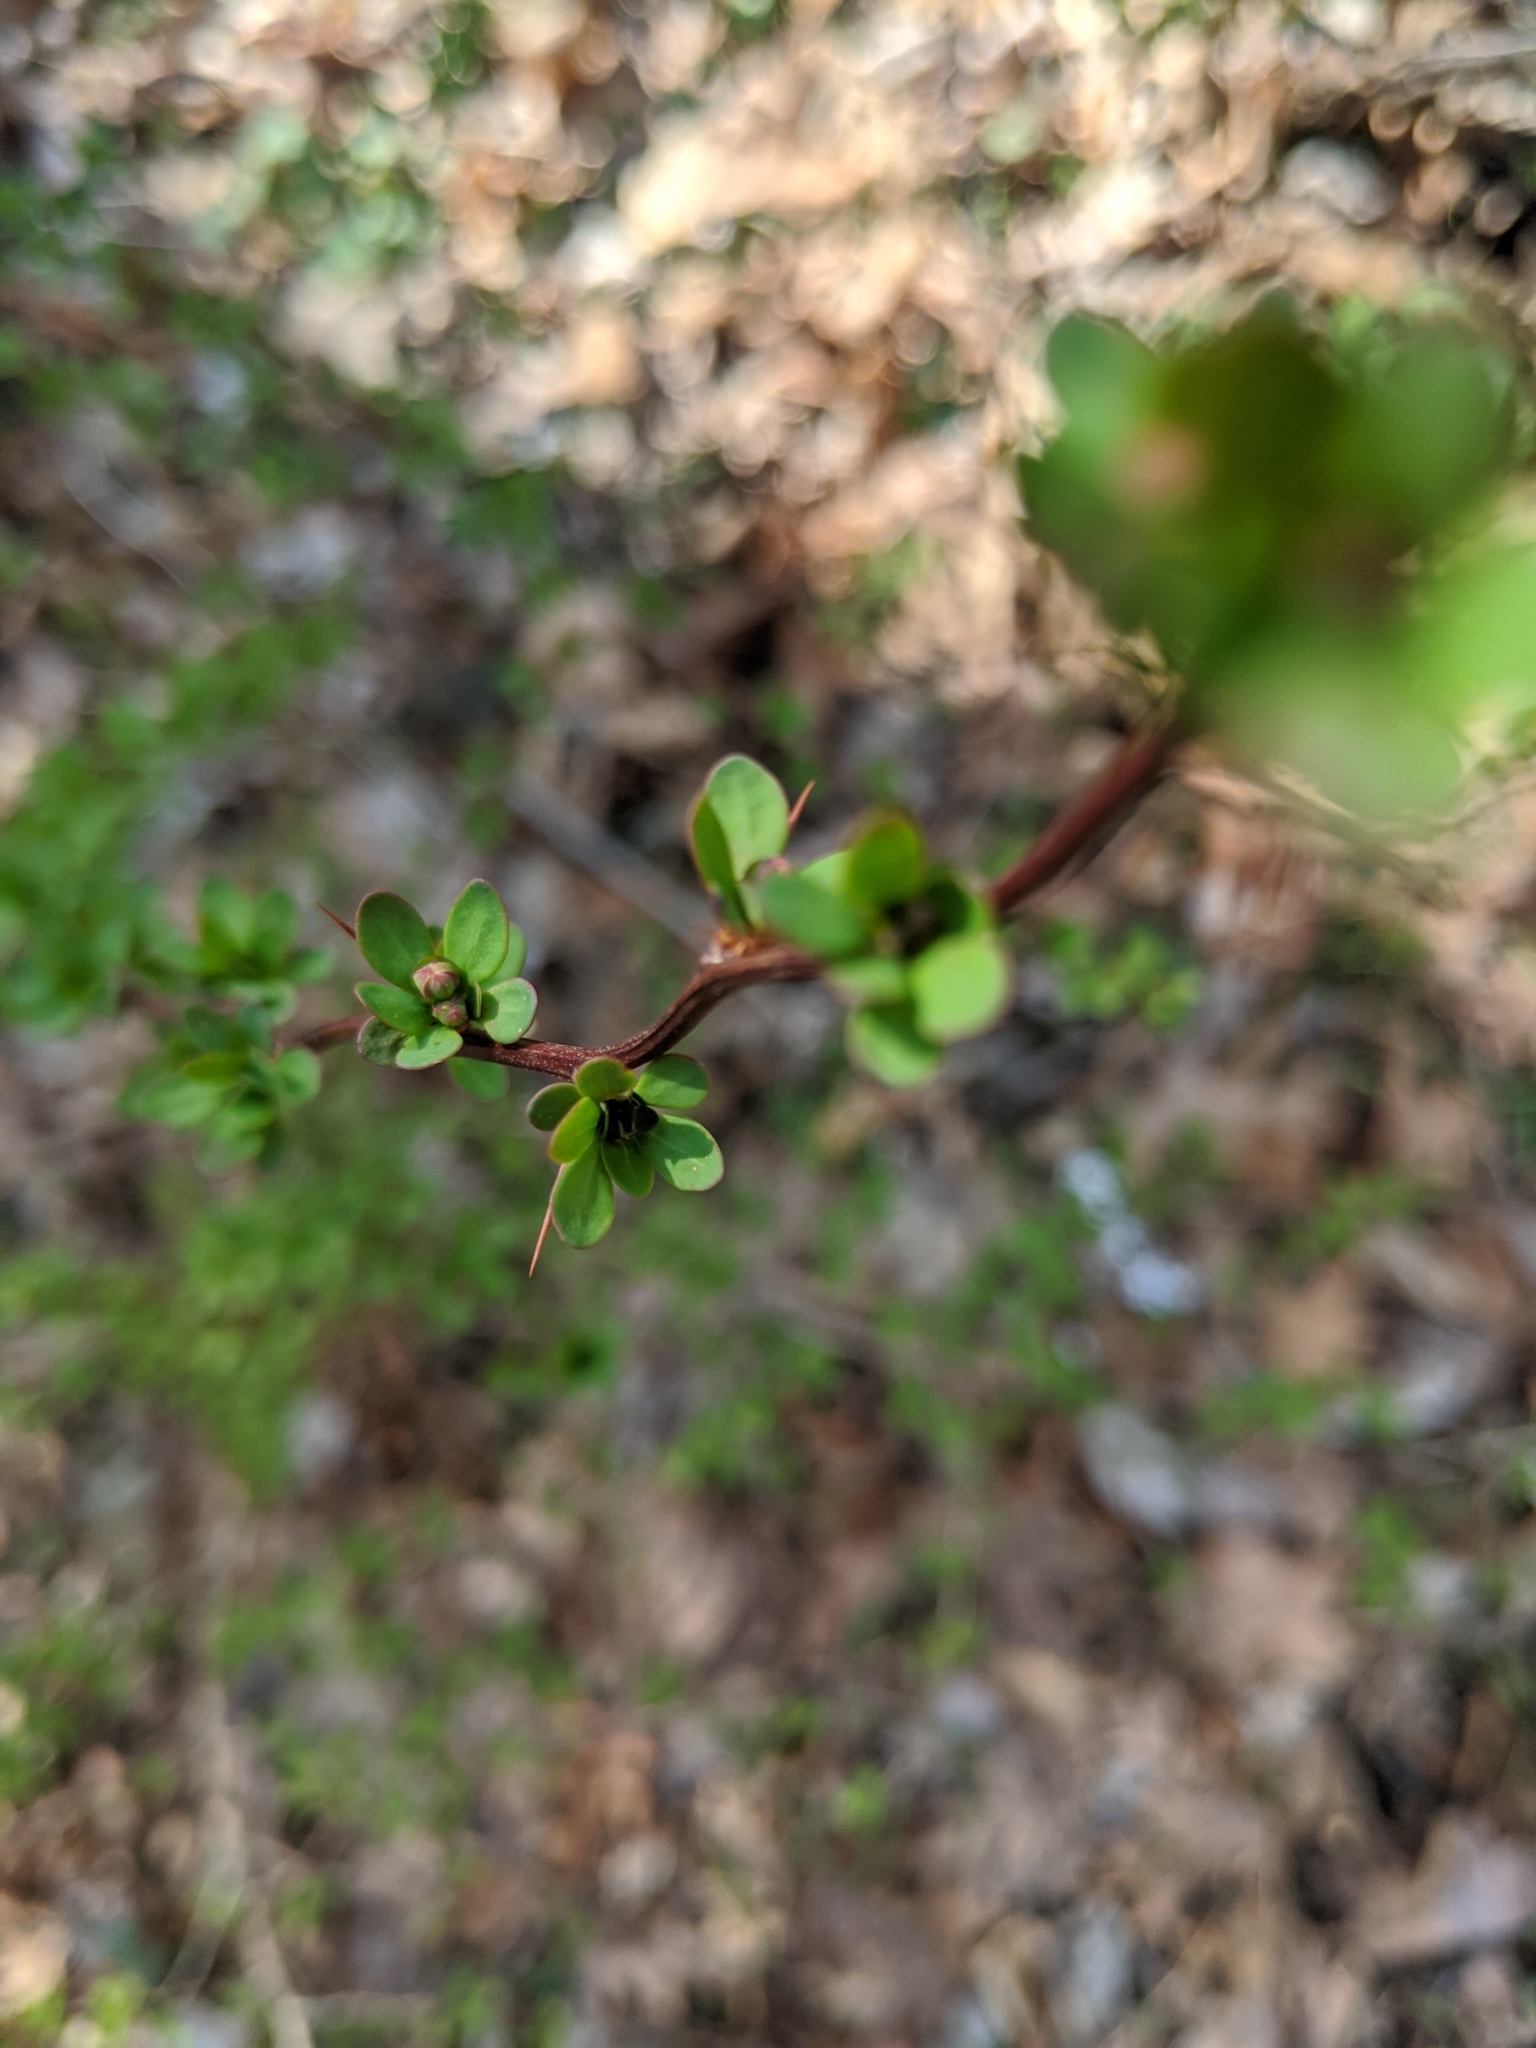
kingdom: Plantae
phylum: Tracheophyta
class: Magnoliopsida
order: Ranunculales
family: Berberidaceae
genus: Berberis
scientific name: Berberis thunbergii
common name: Japanese barberry
